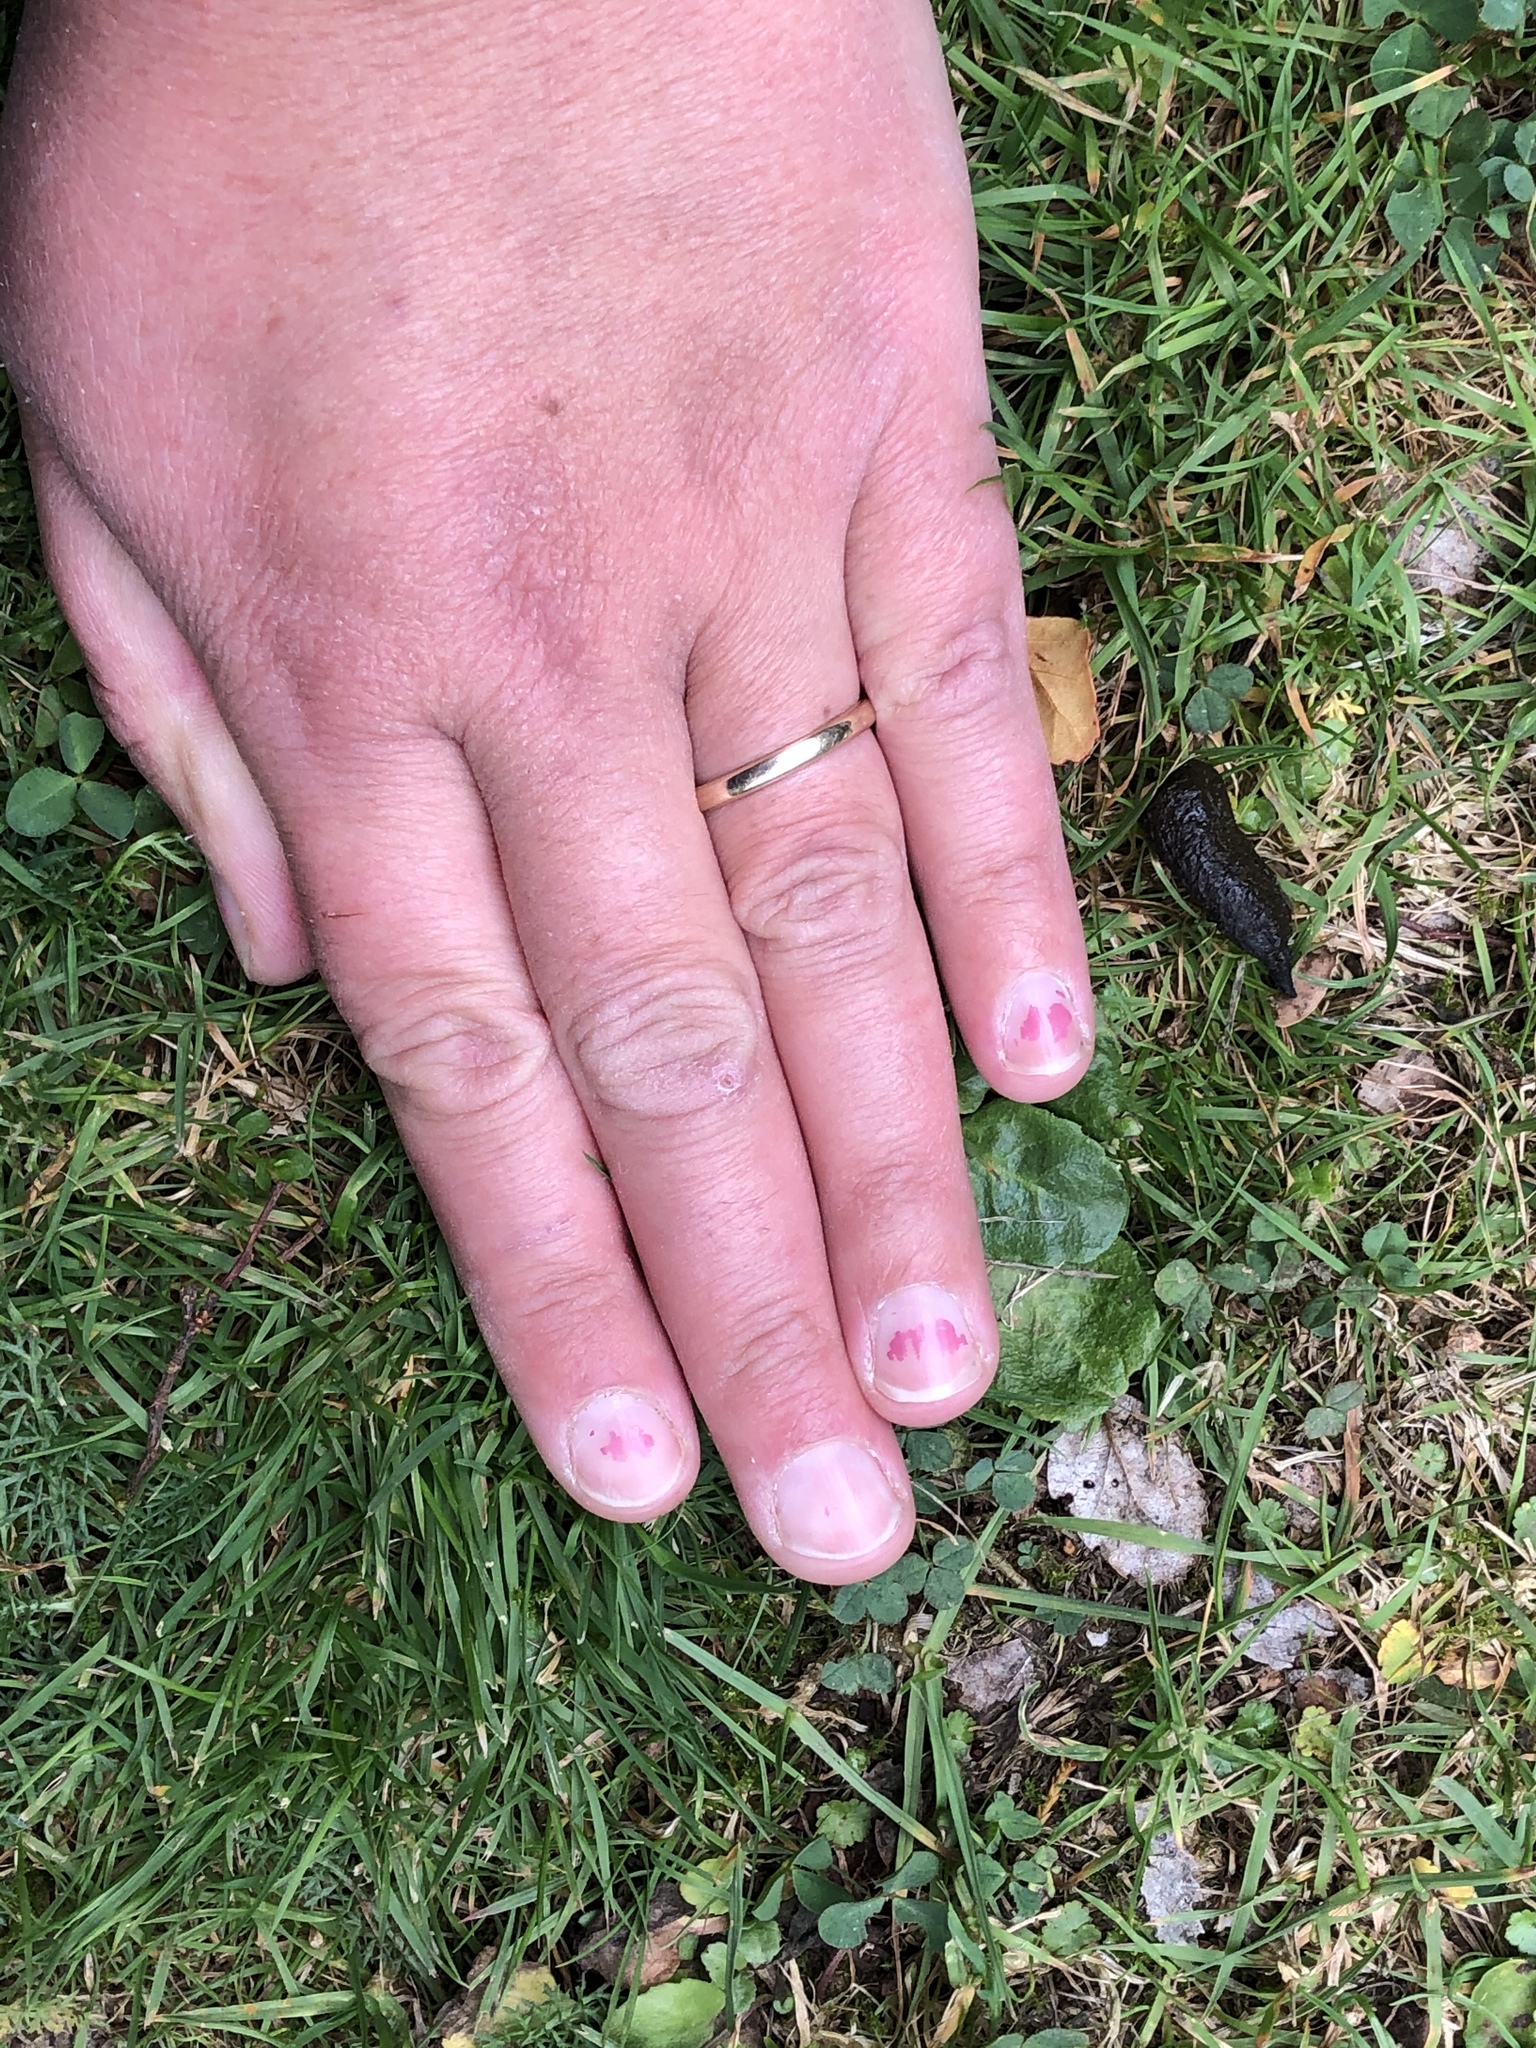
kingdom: Animalia
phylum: Chordata
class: Mammalia
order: Erinaceomorpha
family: Erinaceidae
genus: Erinaceus
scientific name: Erinaceus europaeus
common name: West european hedgehog
